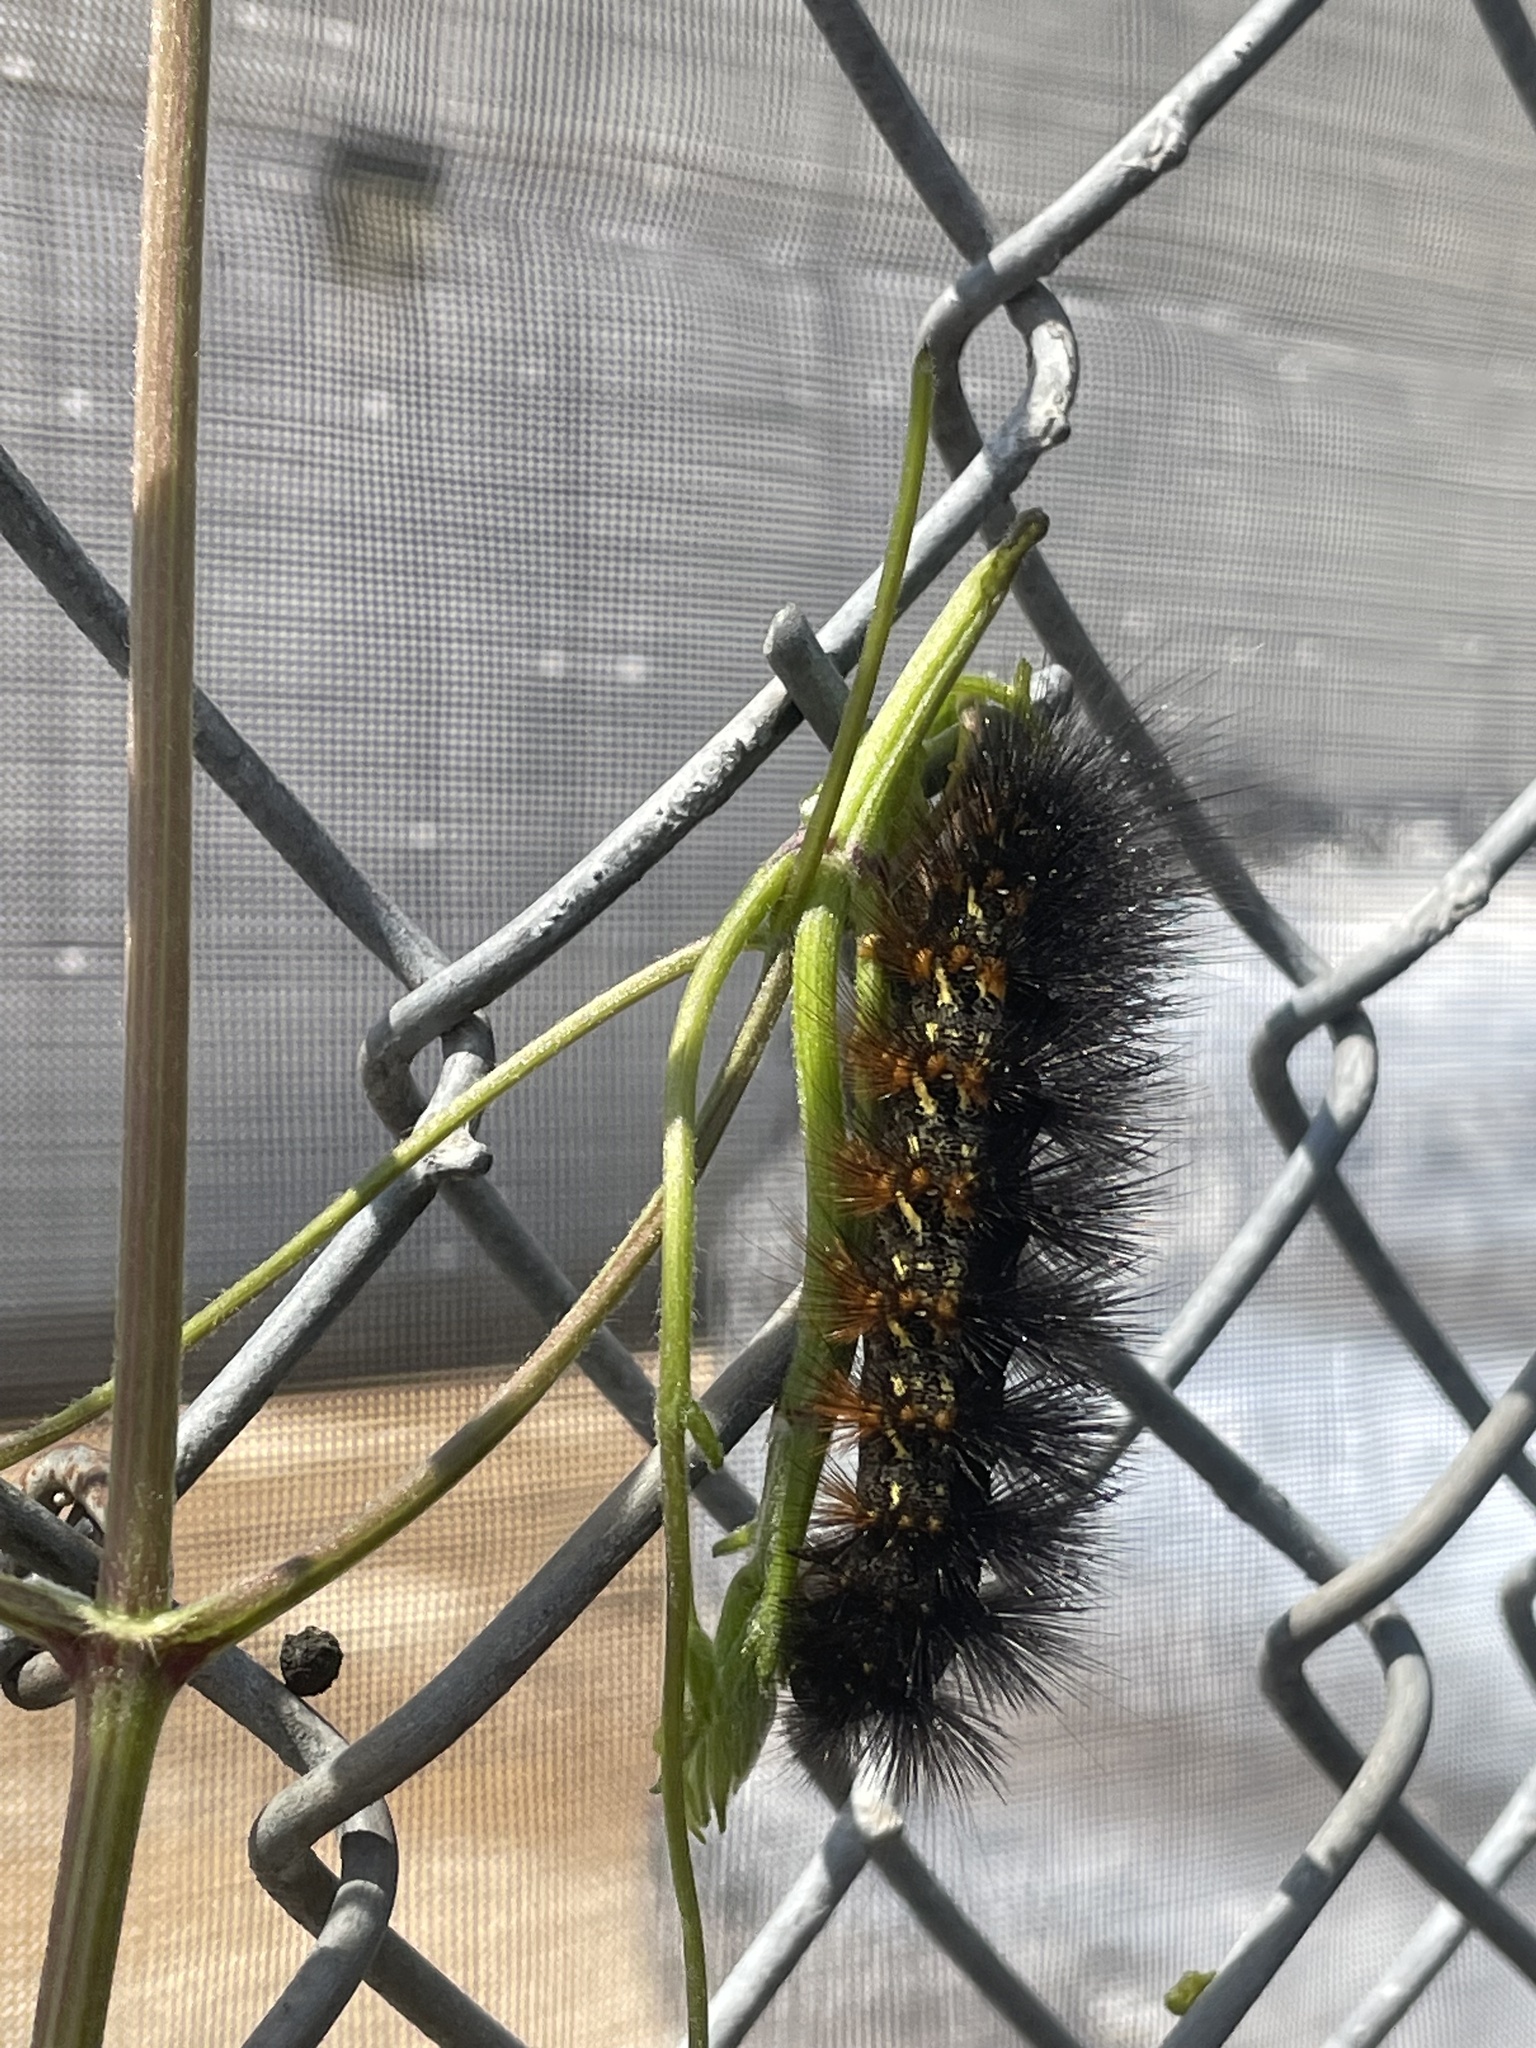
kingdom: Animalia
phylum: Arthropoda
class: Insecta
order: Lepidoptera
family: Erebidae
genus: Estigmene
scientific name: Estigmene acrea
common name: Salt marsh moth
